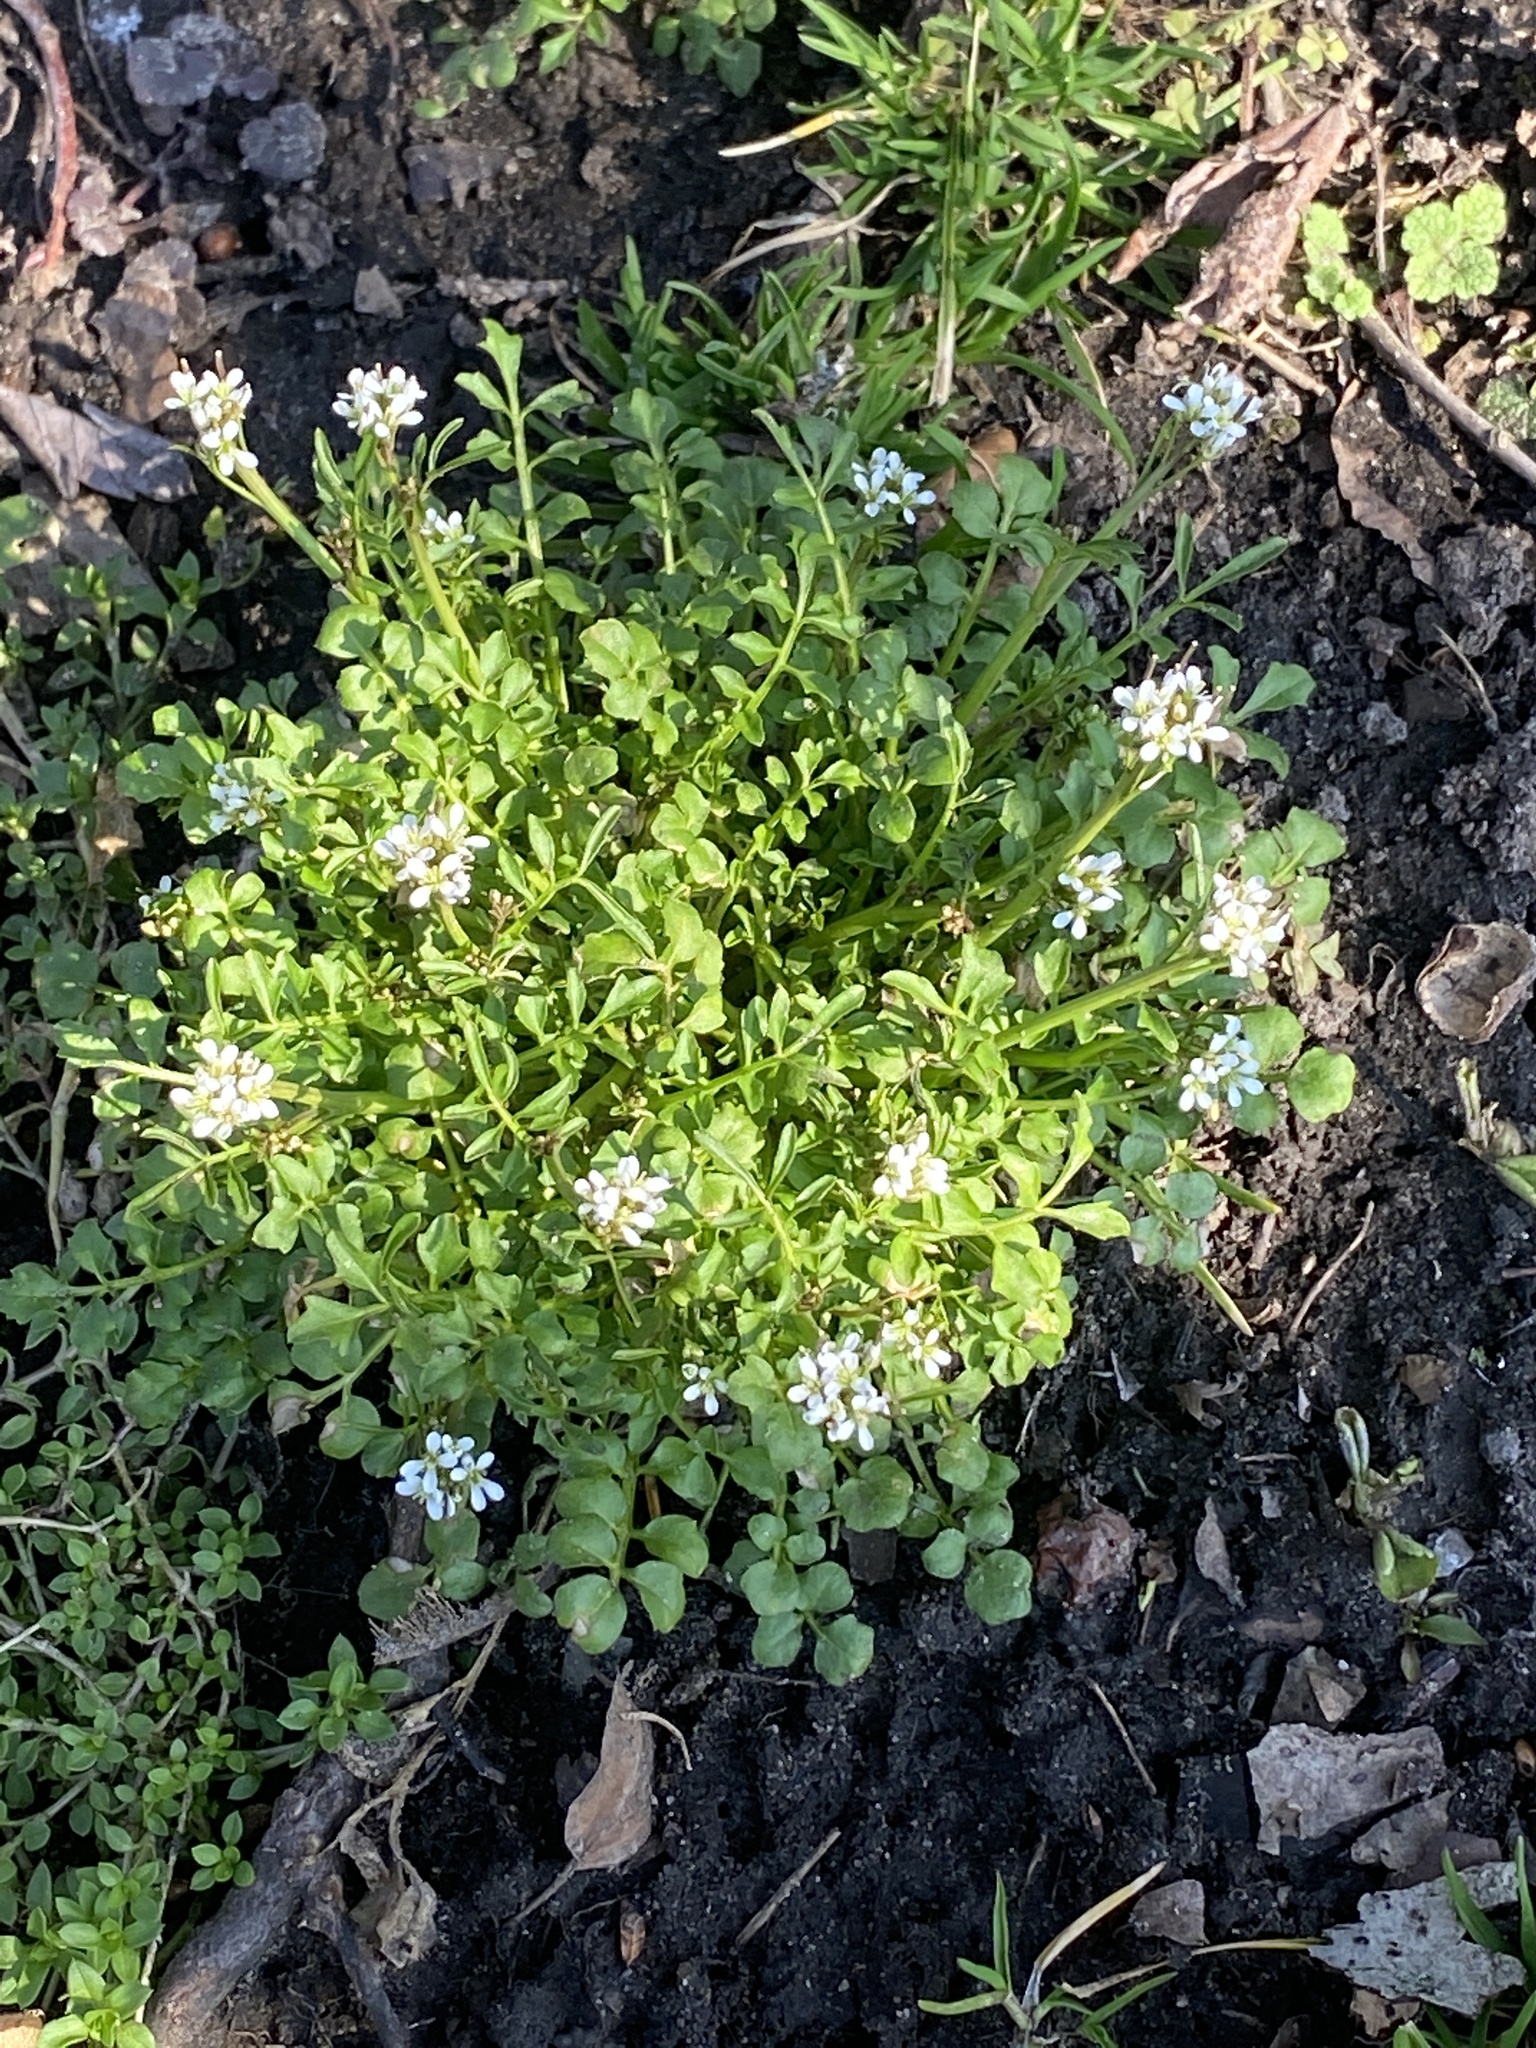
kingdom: Plantae
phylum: Tracheophyta
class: Magnoliopsida
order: Brassicales
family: Brassicaceae
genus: Cardamine
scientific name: Cardamine hirsuta
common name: Hairy bittercress
